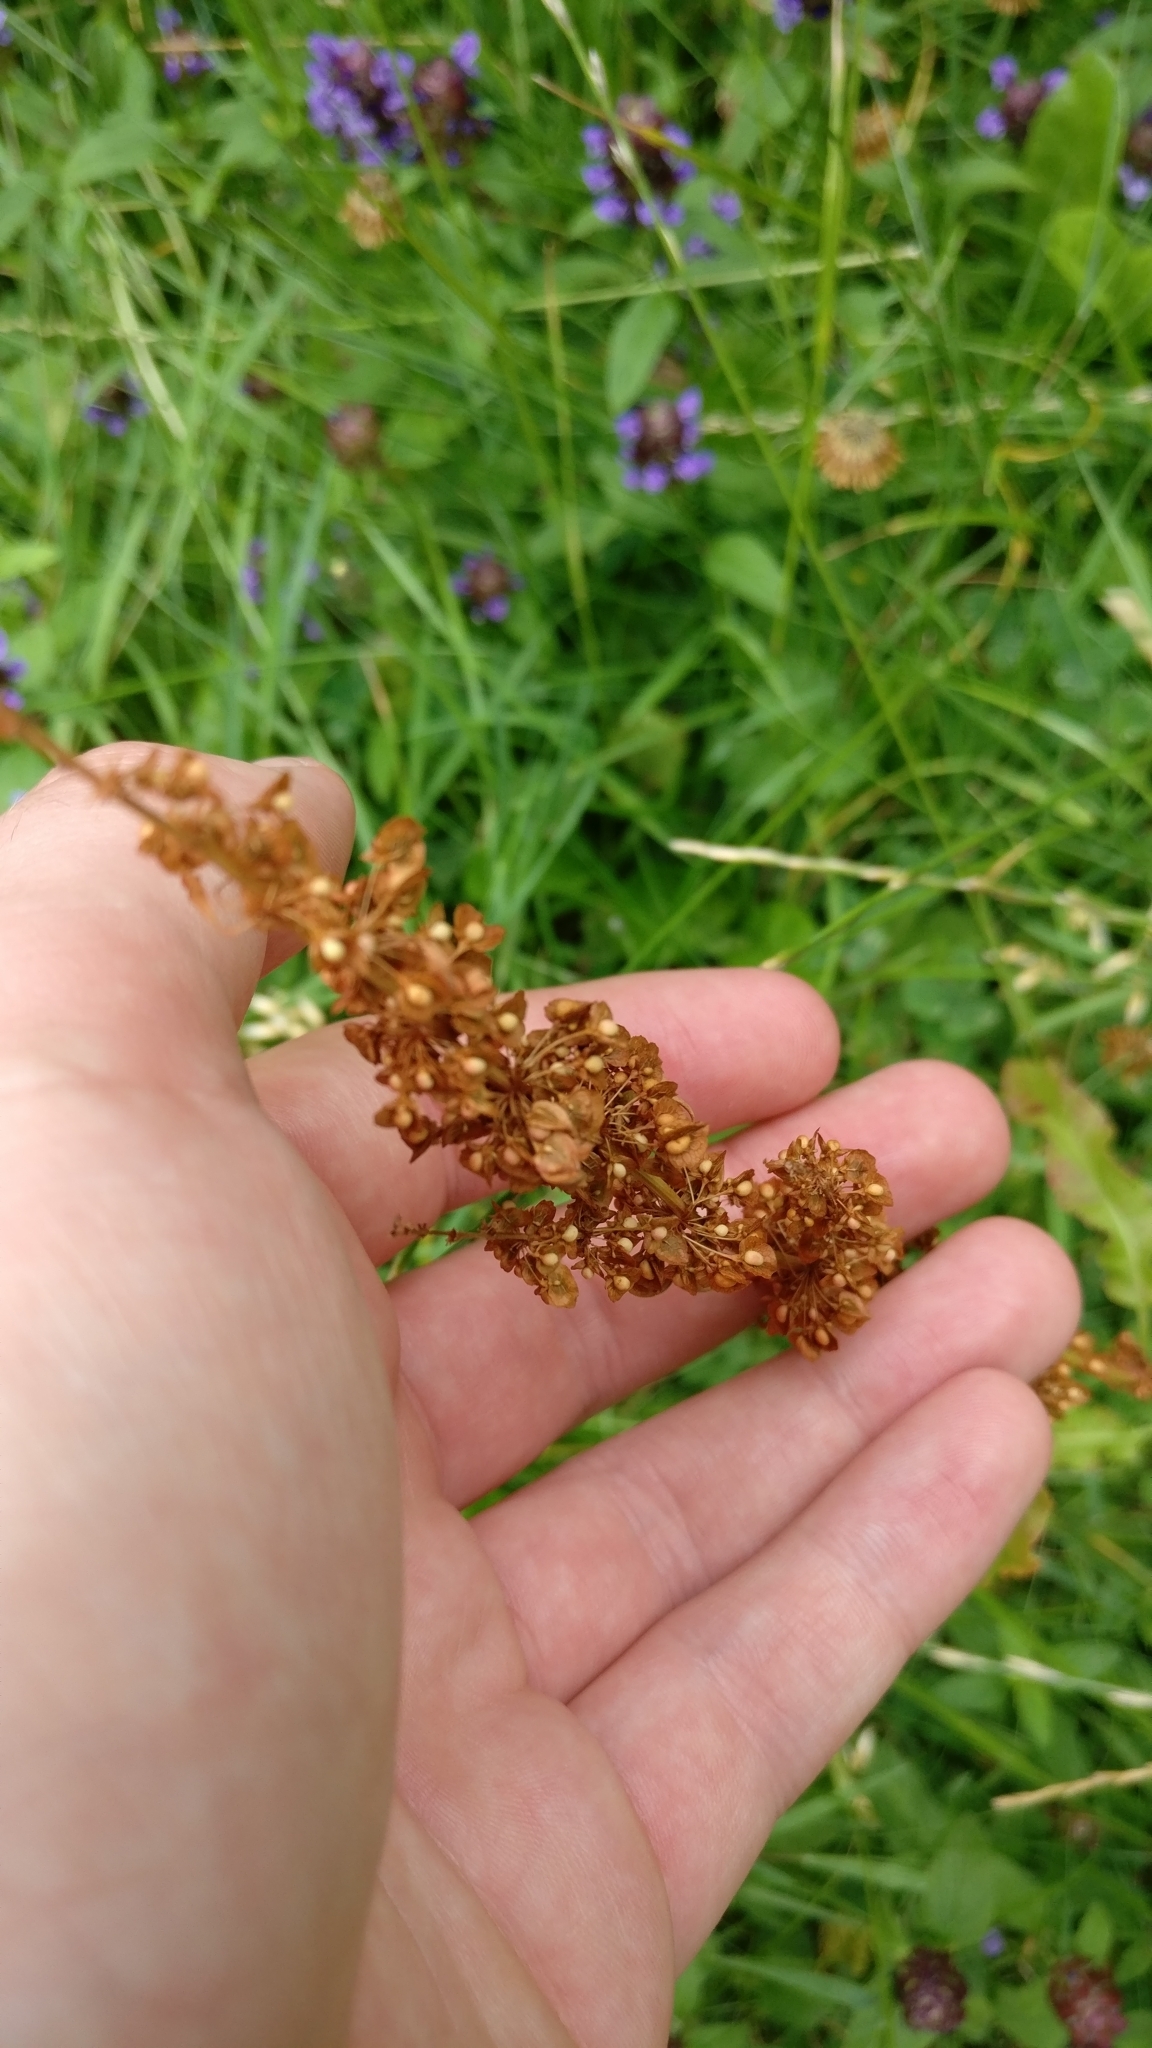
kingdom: Plantae
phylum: Tracheophyta
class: Magnoliopsida
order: Caryophyllales
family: Polygonaceae
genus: Rumex
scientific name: Rumex acetosa
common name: Garden sorrel
